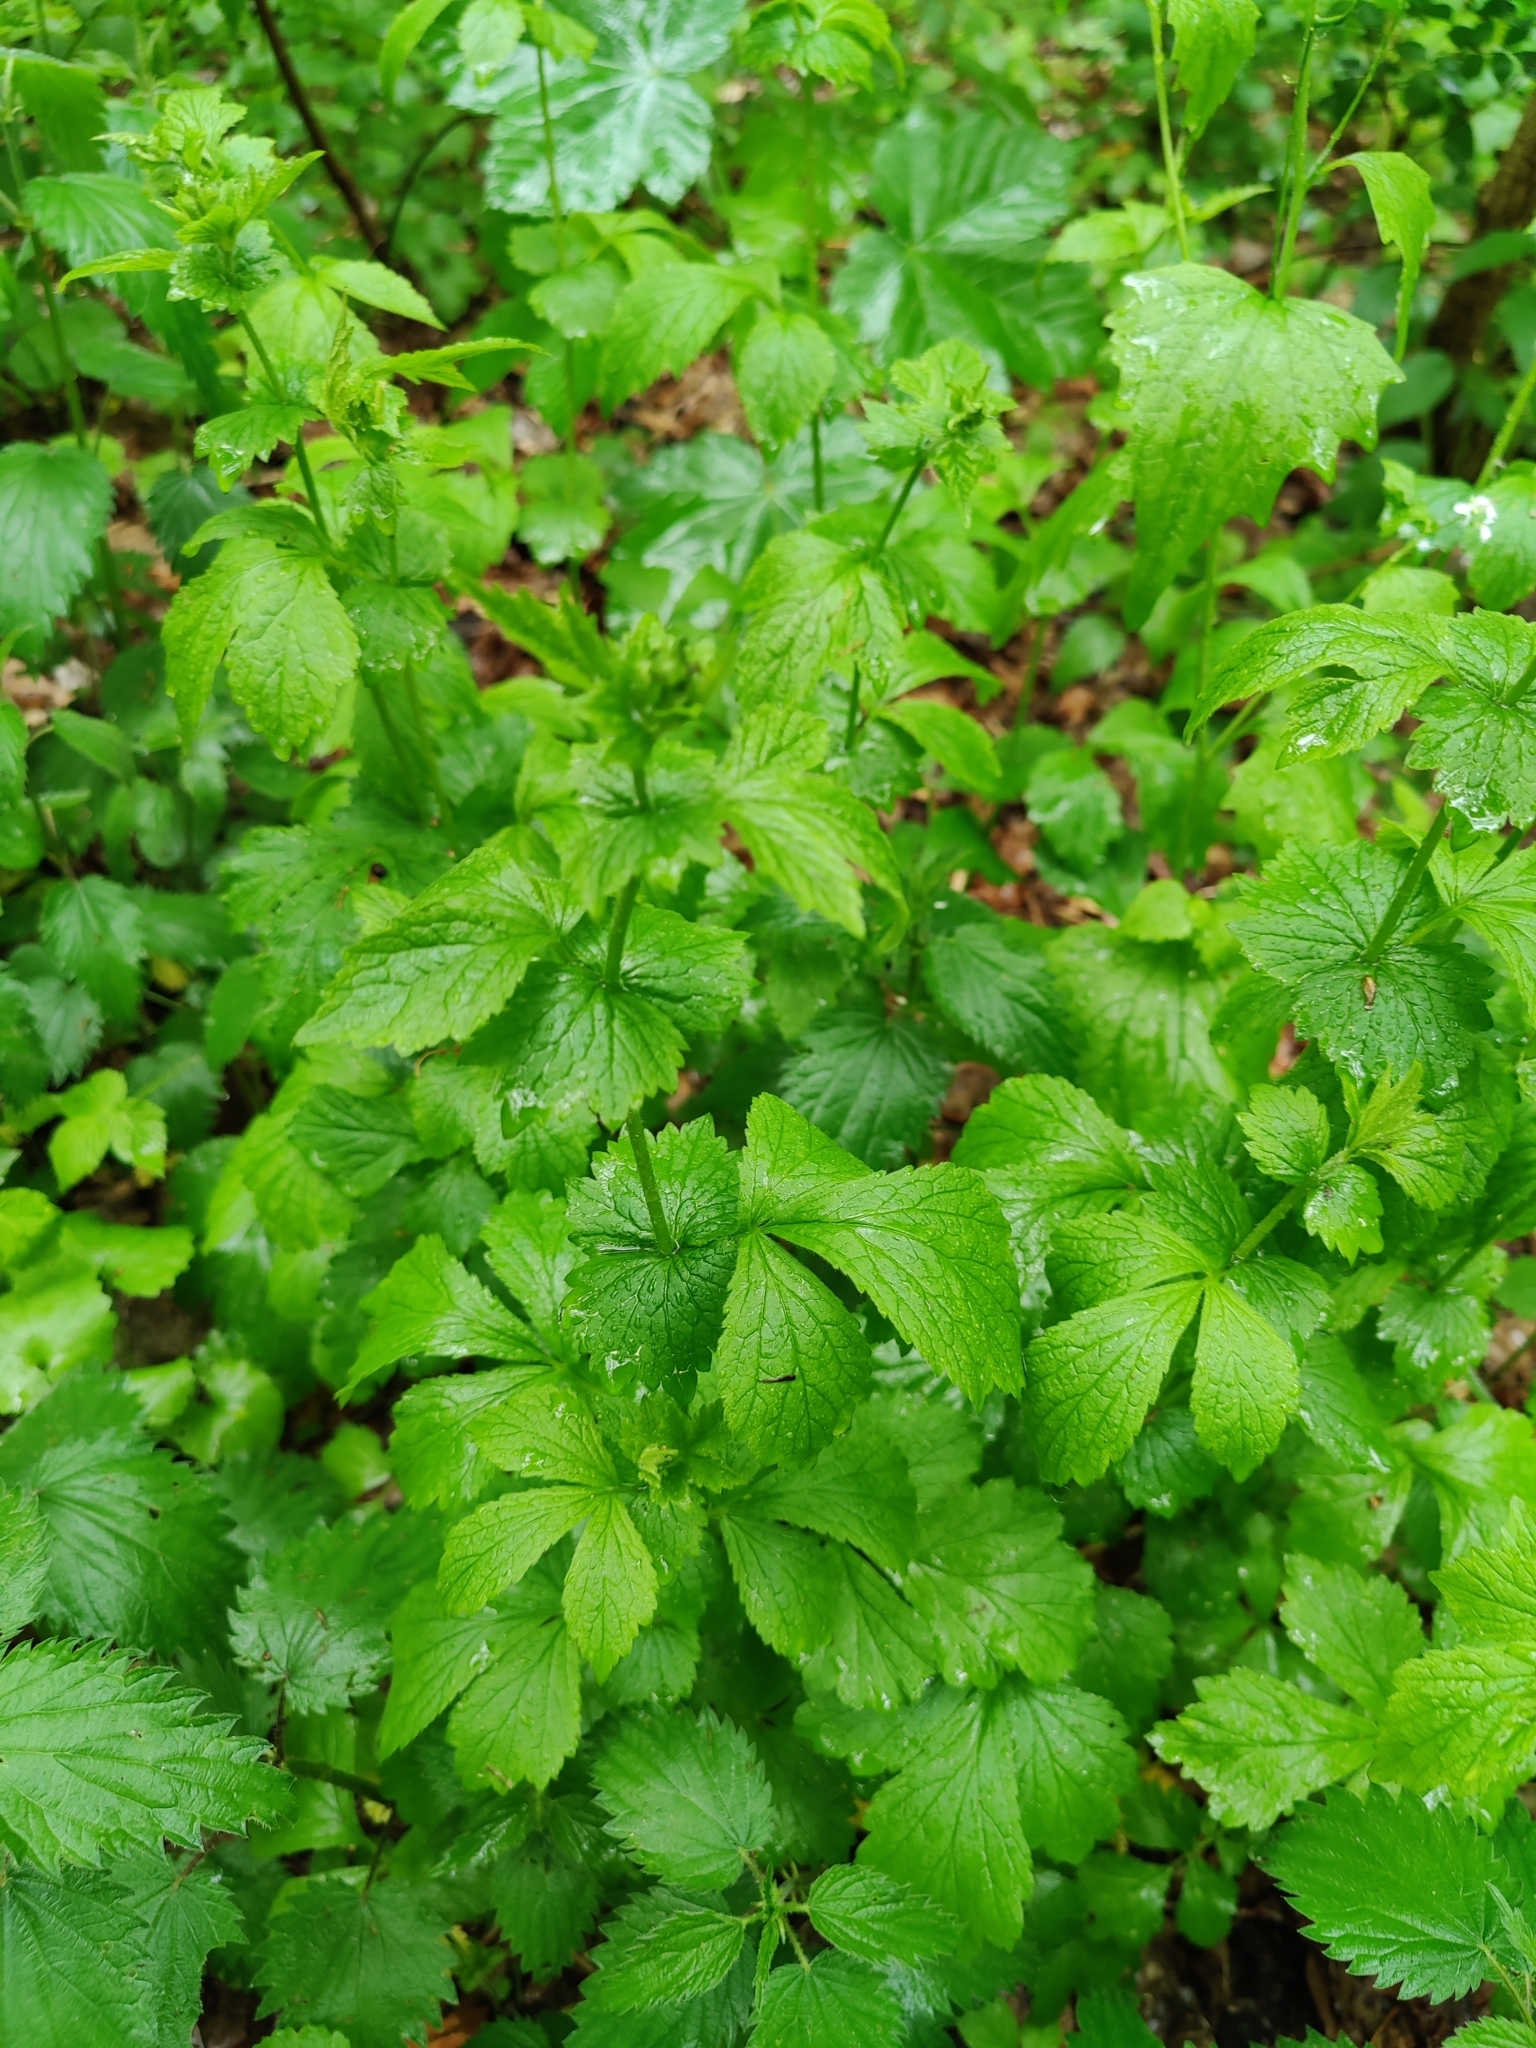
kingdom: Plantae
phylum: Tracheophyta
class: Magnoliopsida
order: Rosales
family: Rosaceae
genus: Geum
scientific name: Geum urbanum
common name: Wood avens
